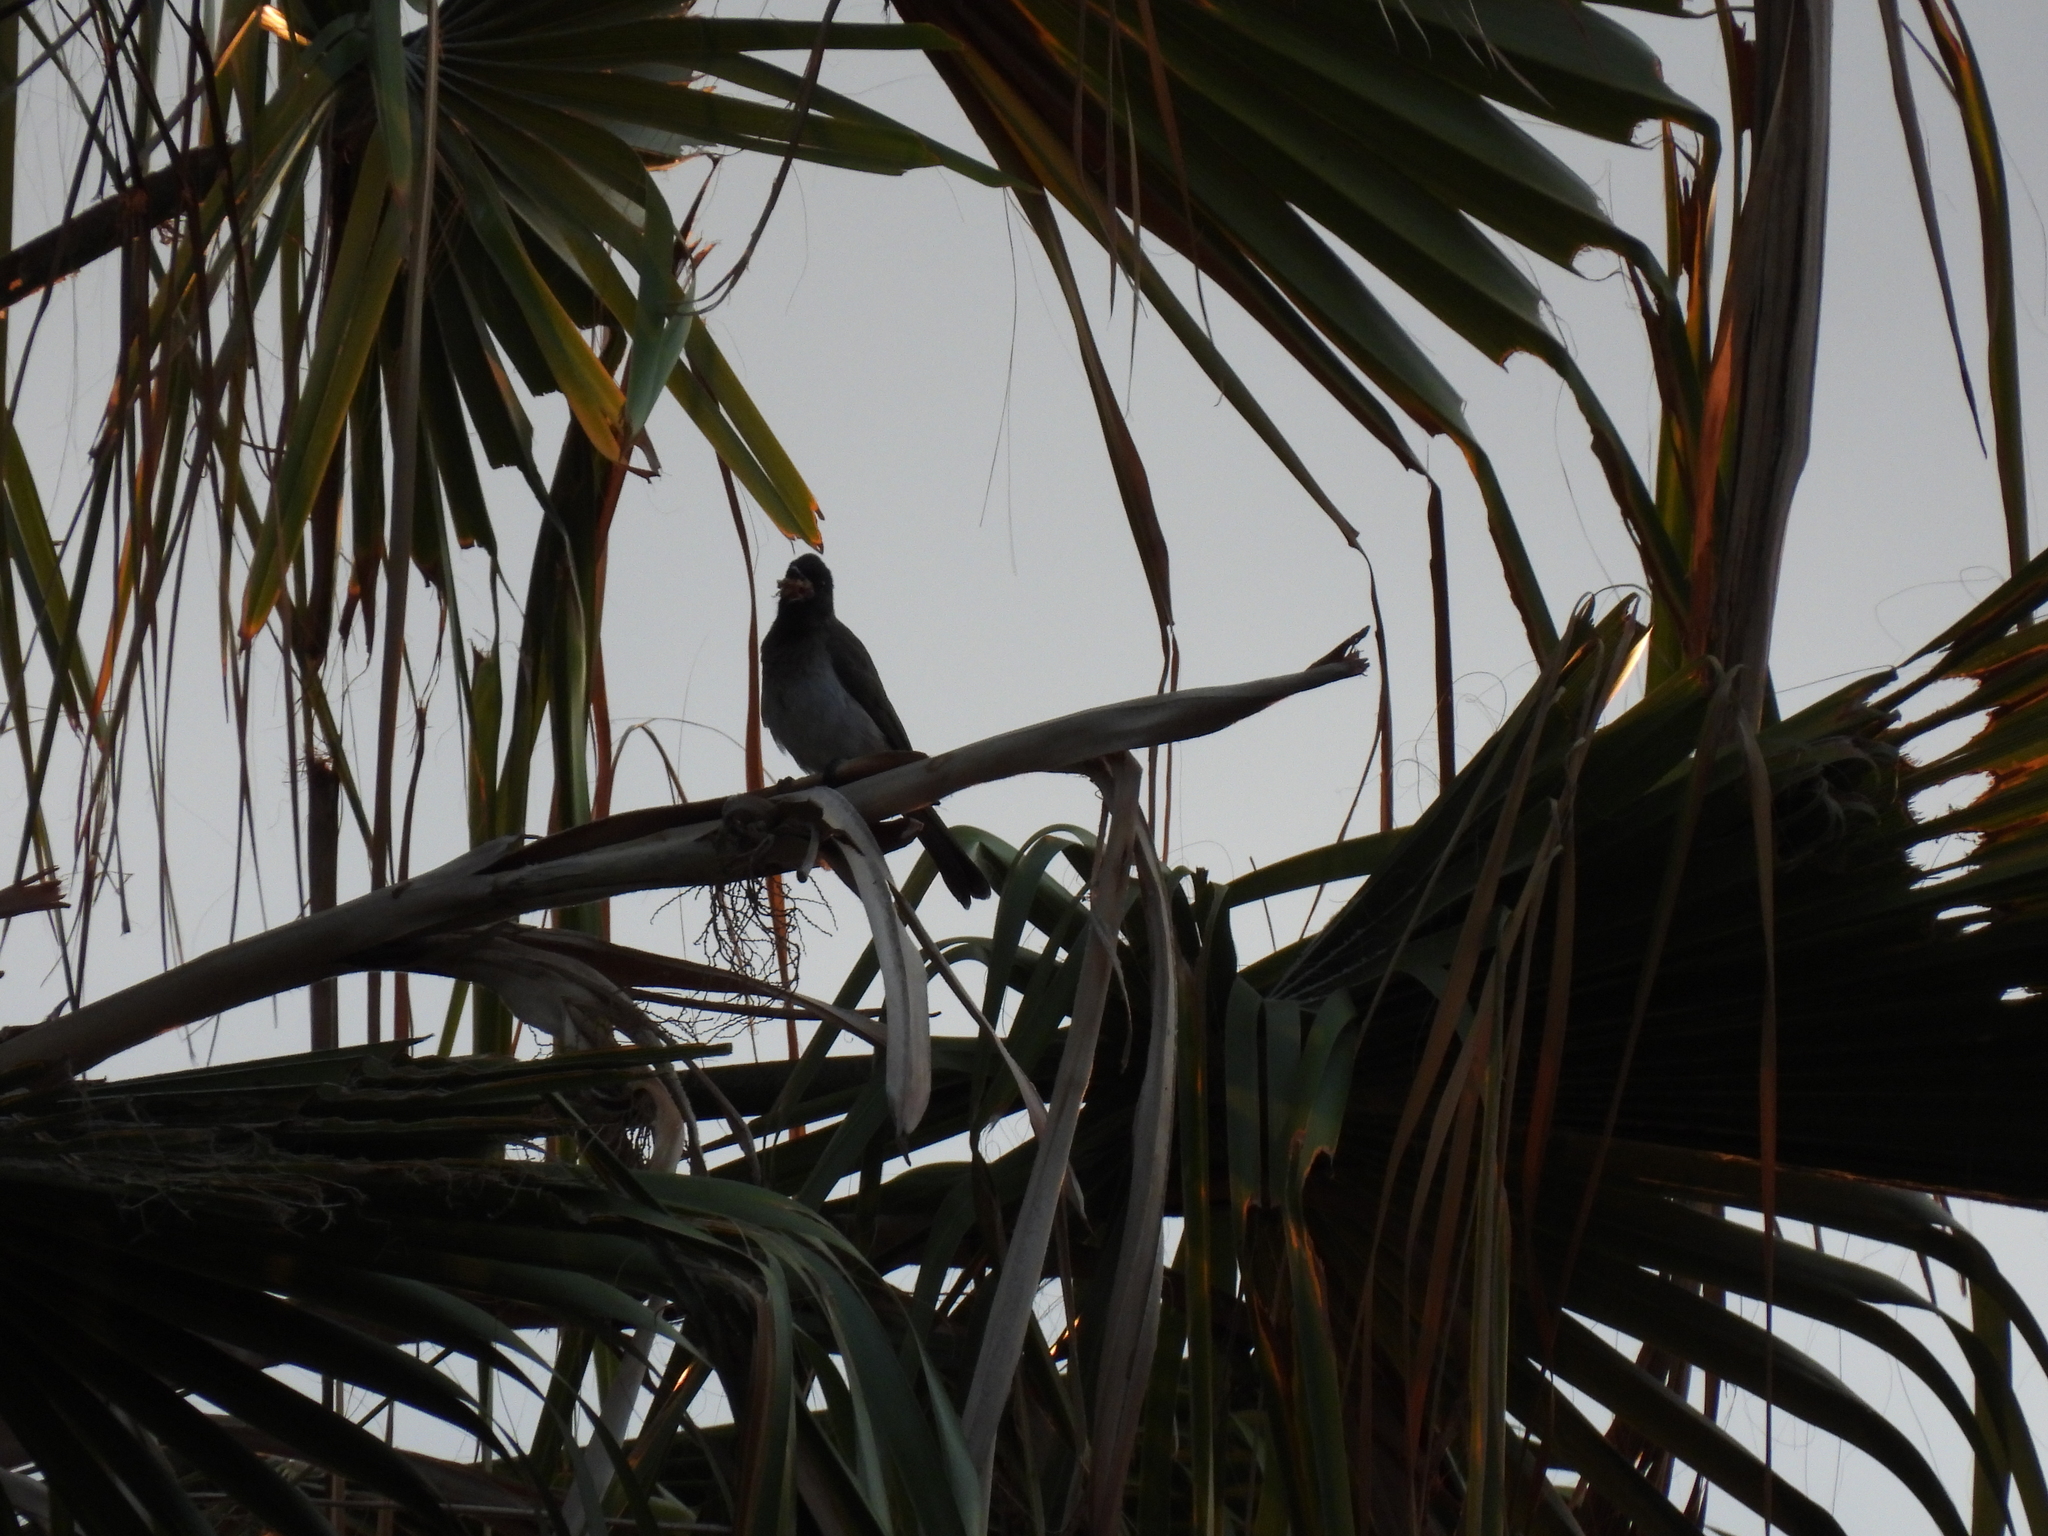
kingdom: Animalia
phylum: Chordata
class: Aves
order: Passeriformes
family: Pycnonotidae
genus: Pycnonotus
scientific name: Pycnonotus barbatus
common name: Common bulbul
